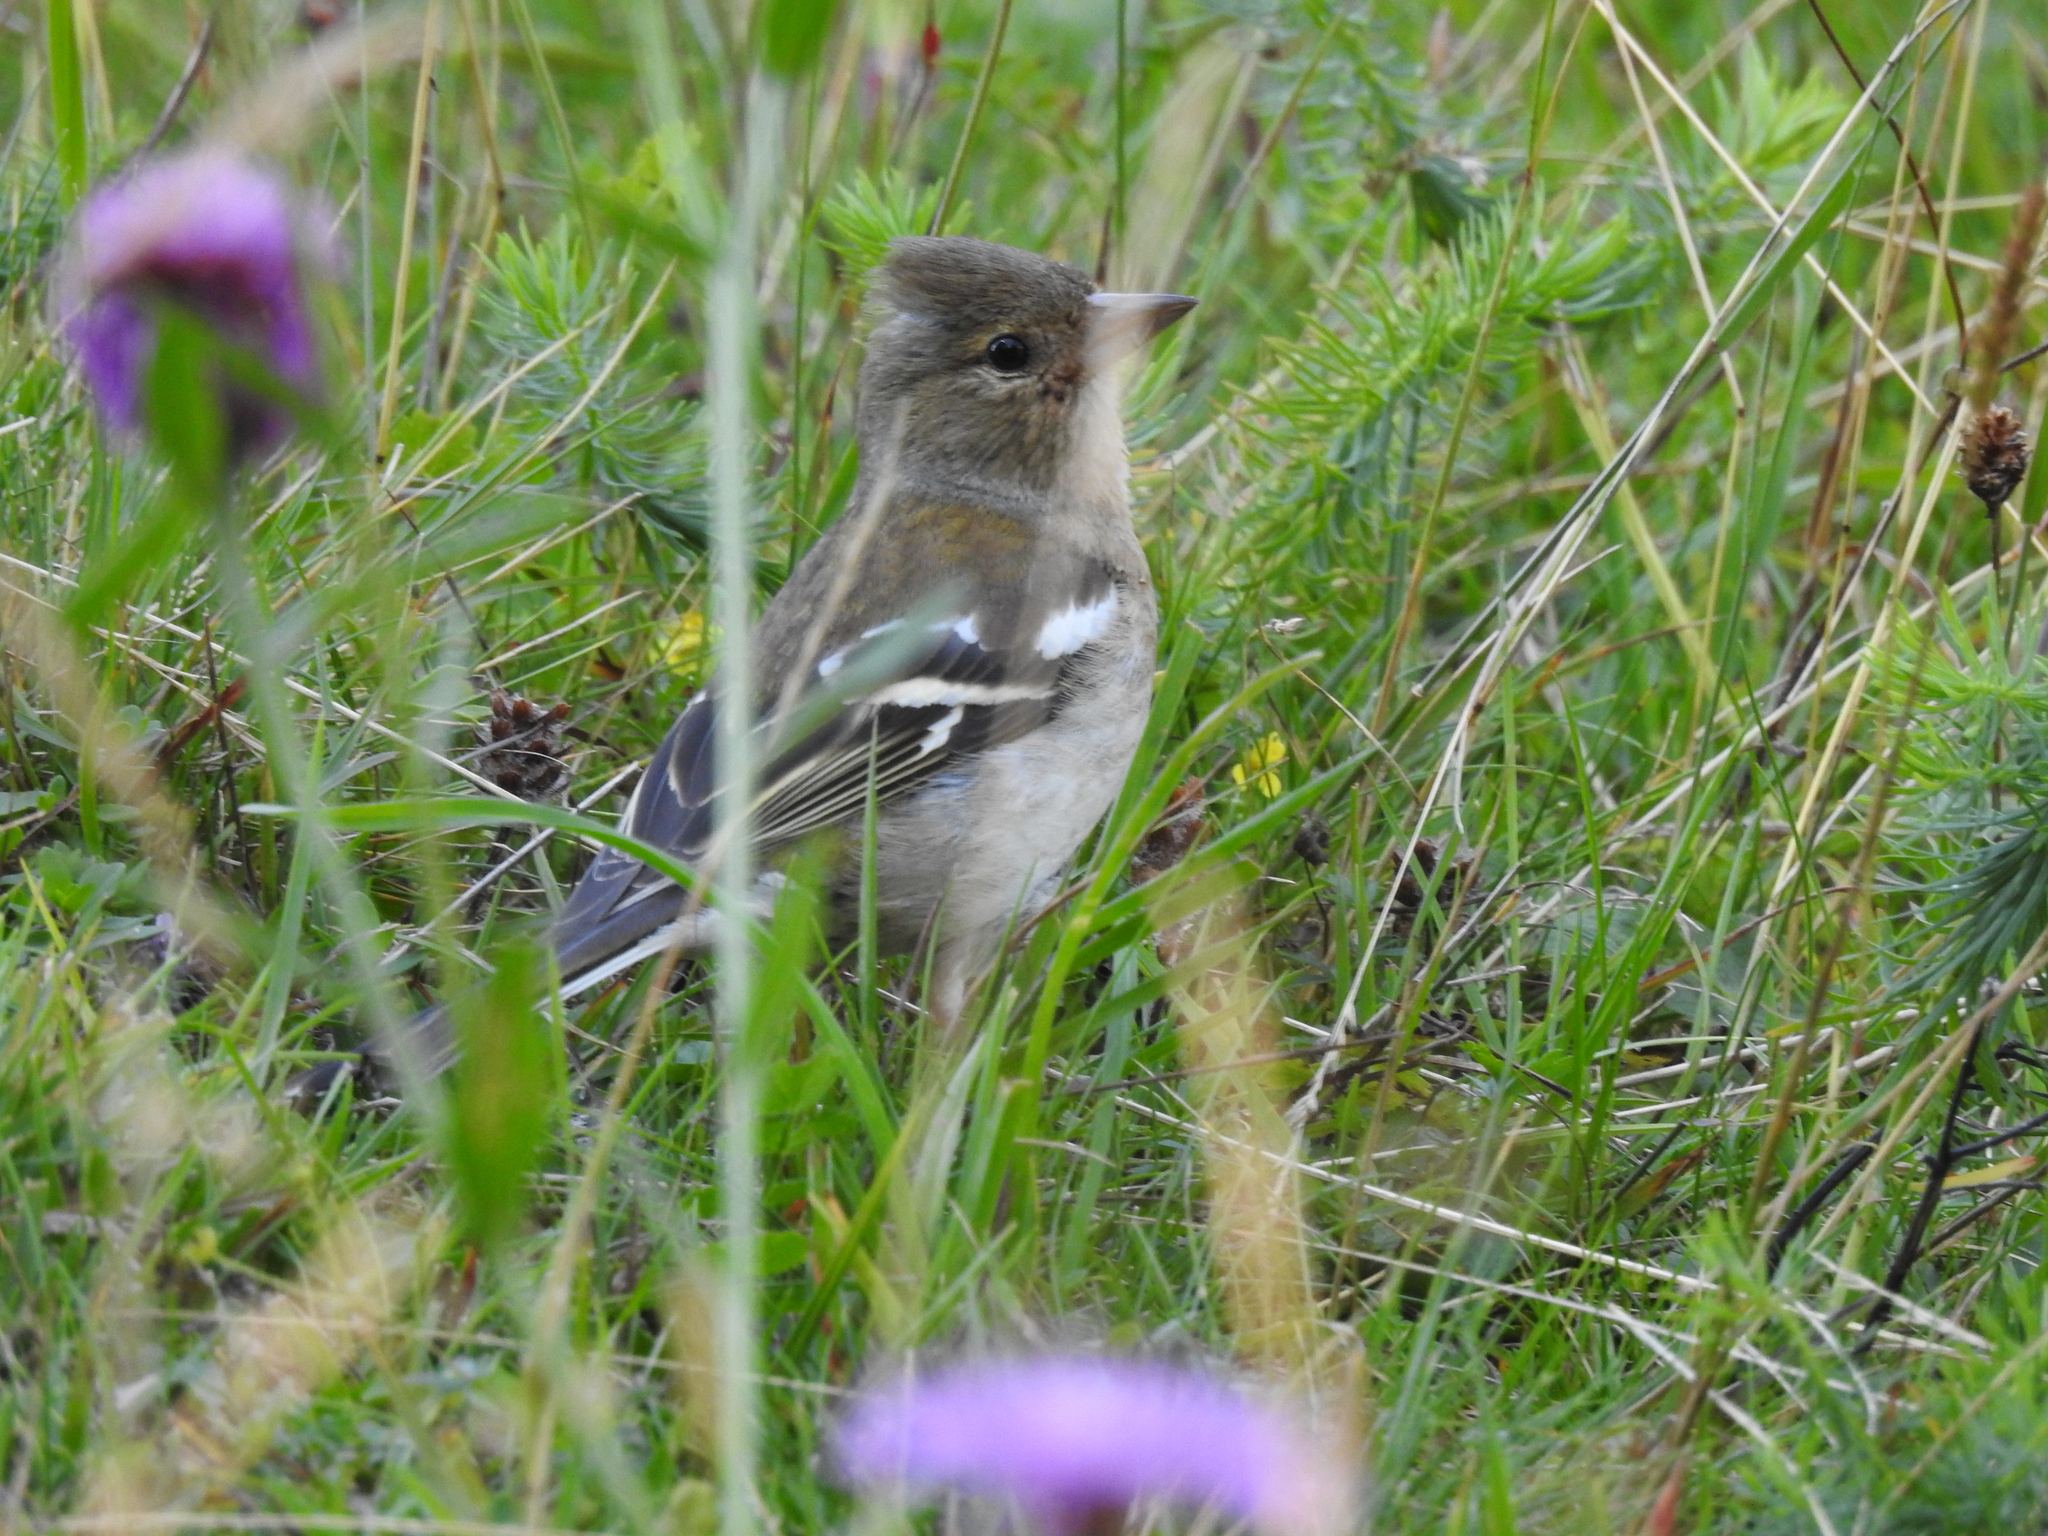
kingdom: Animalia
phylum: Chordata
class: Aves
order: Passeriformes
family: Fringillidae
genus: Fringilla
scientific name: Fringilla coelebs
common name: Common chaffinch
